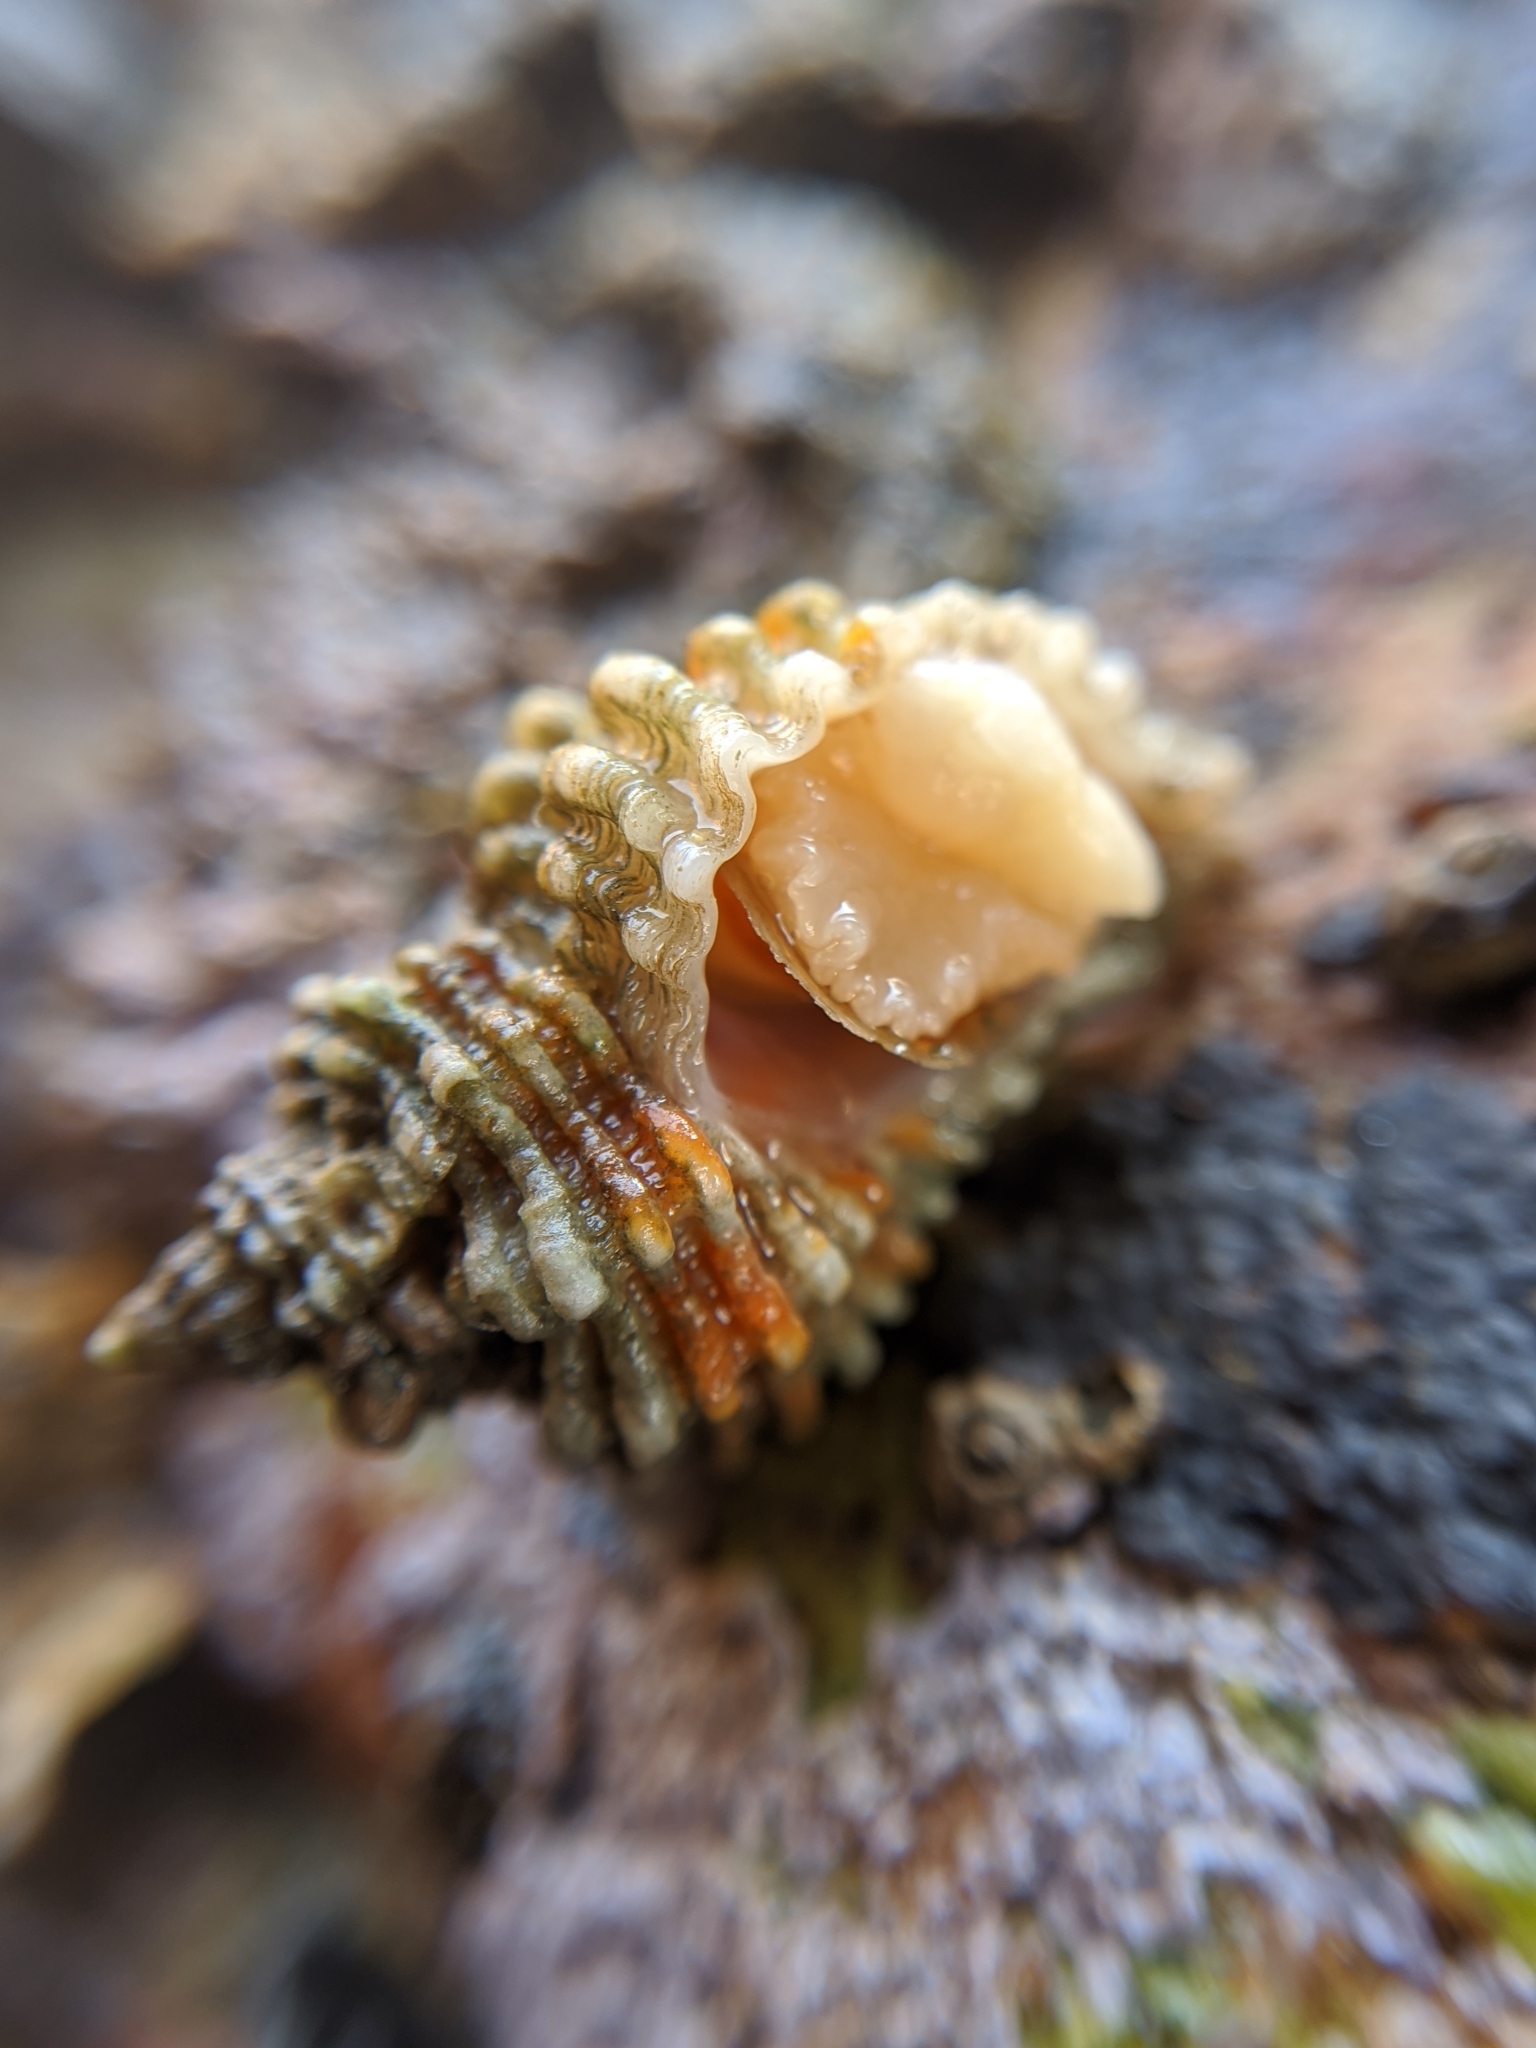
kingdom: Animalia
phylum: Mollusca
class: Gastropoda
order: Neogastropoda
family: Muricidae
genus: Paciocinebrina
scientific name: Paciocinebrina atropurpurea
